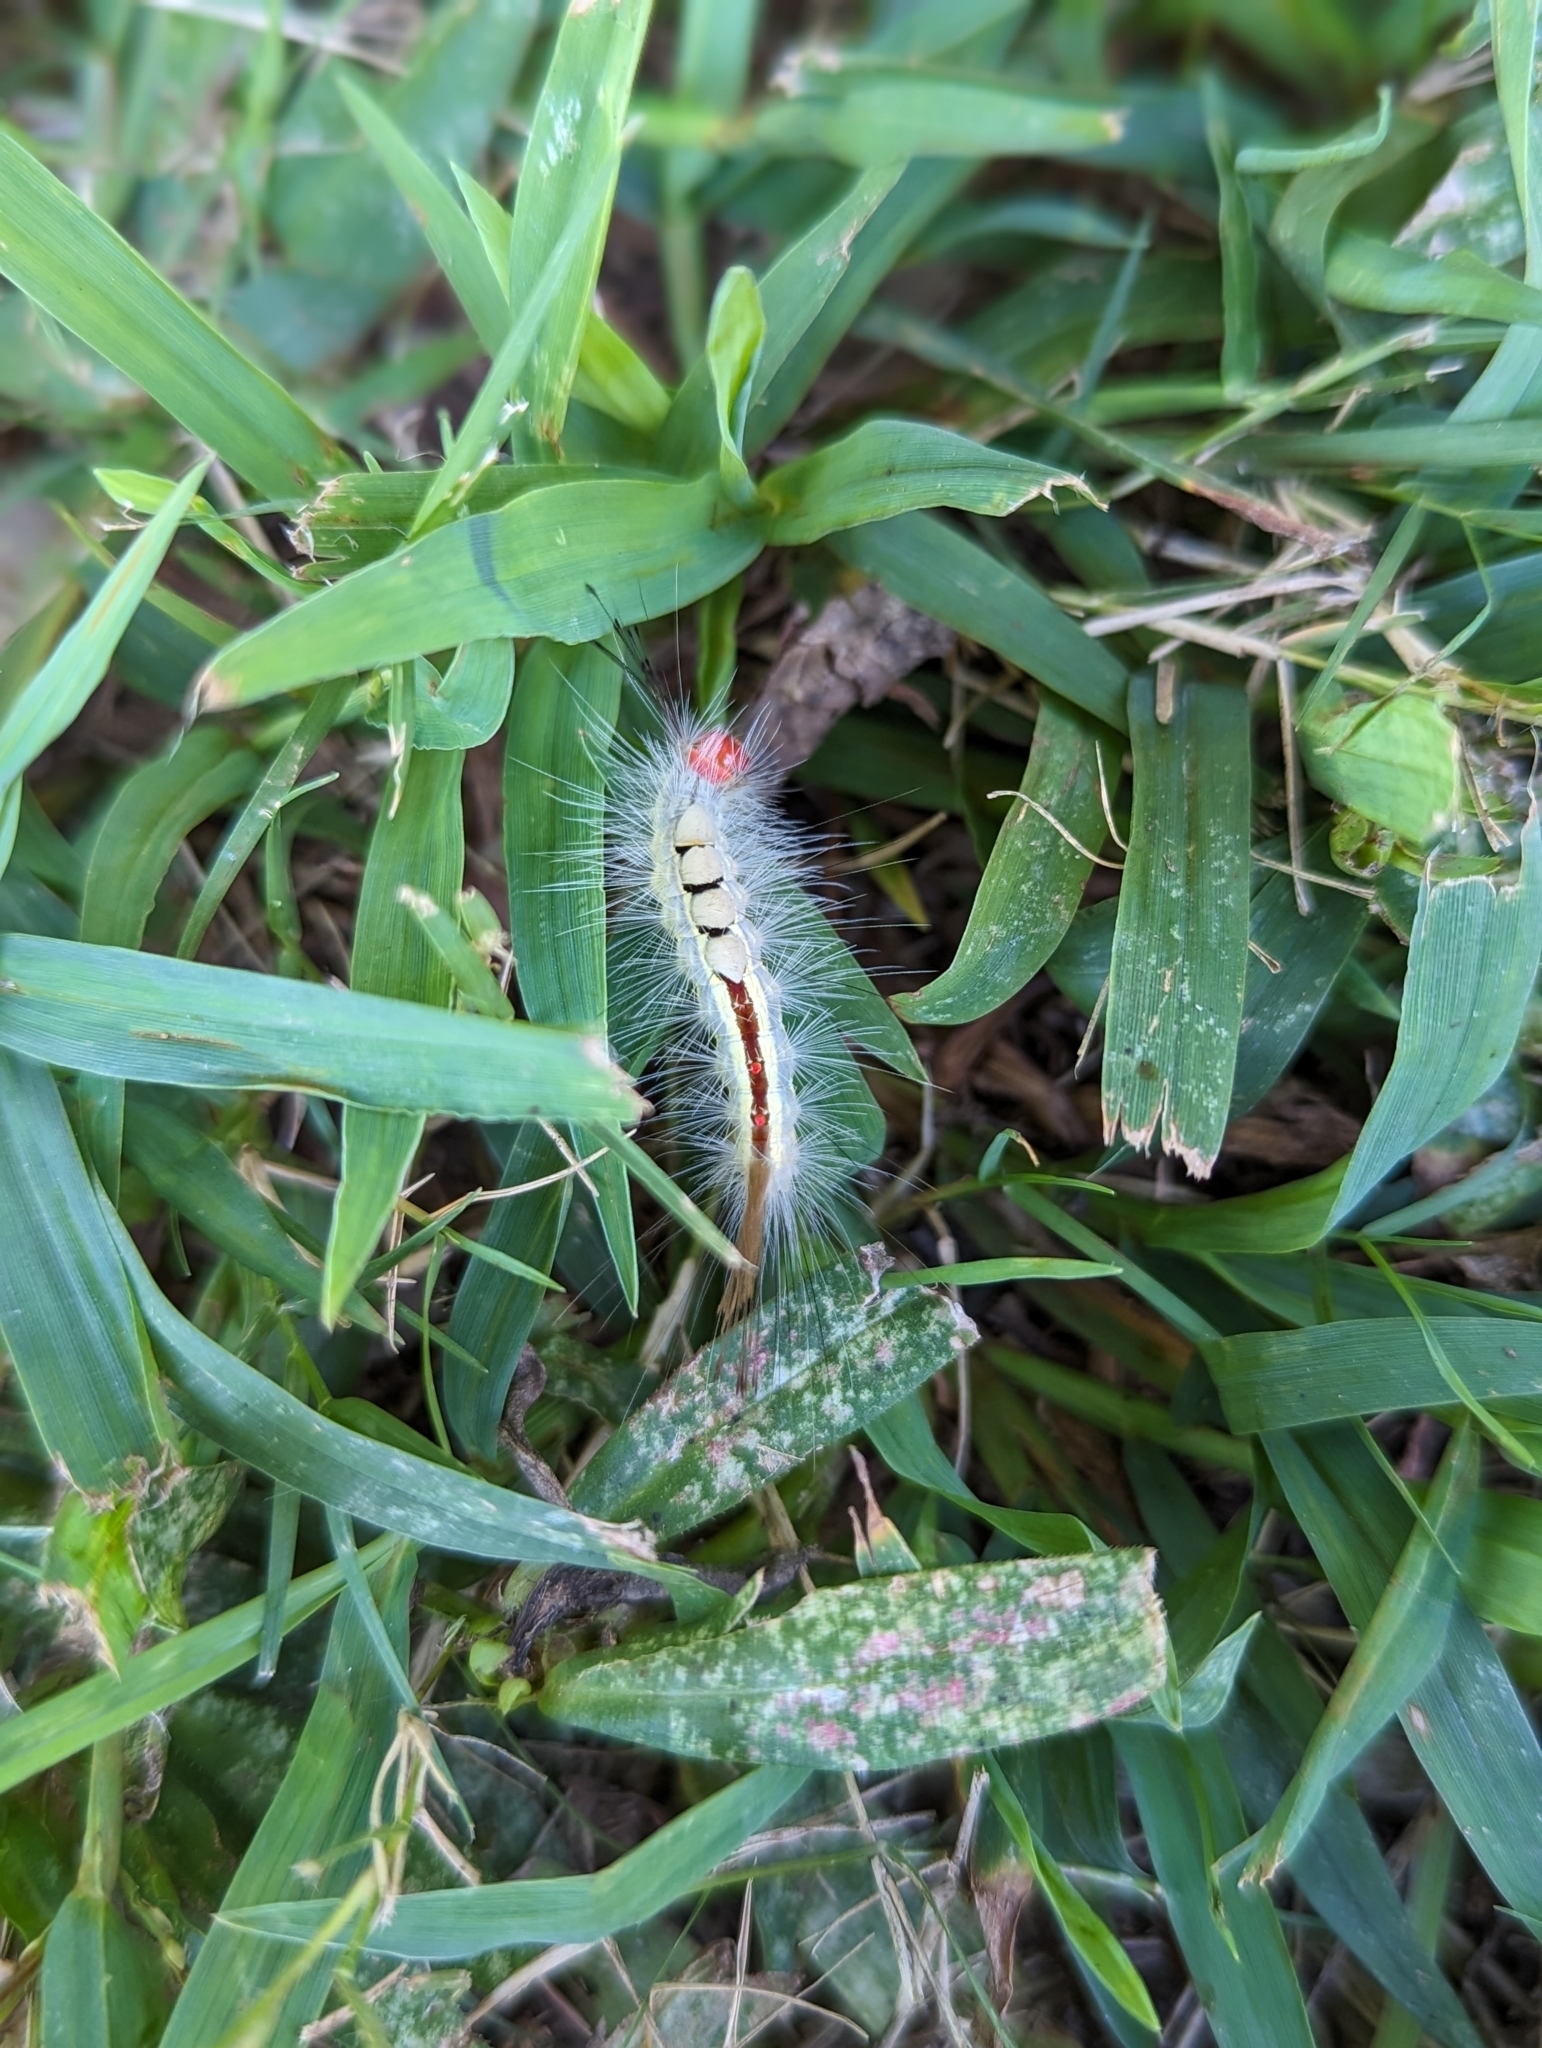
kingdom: Animalia
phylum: Arthropoda
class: Insecta
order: Lepidoptera
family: Erebidae
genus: Orgyia
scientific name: Orgyia leucostigma
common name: White-marked tussock moth
